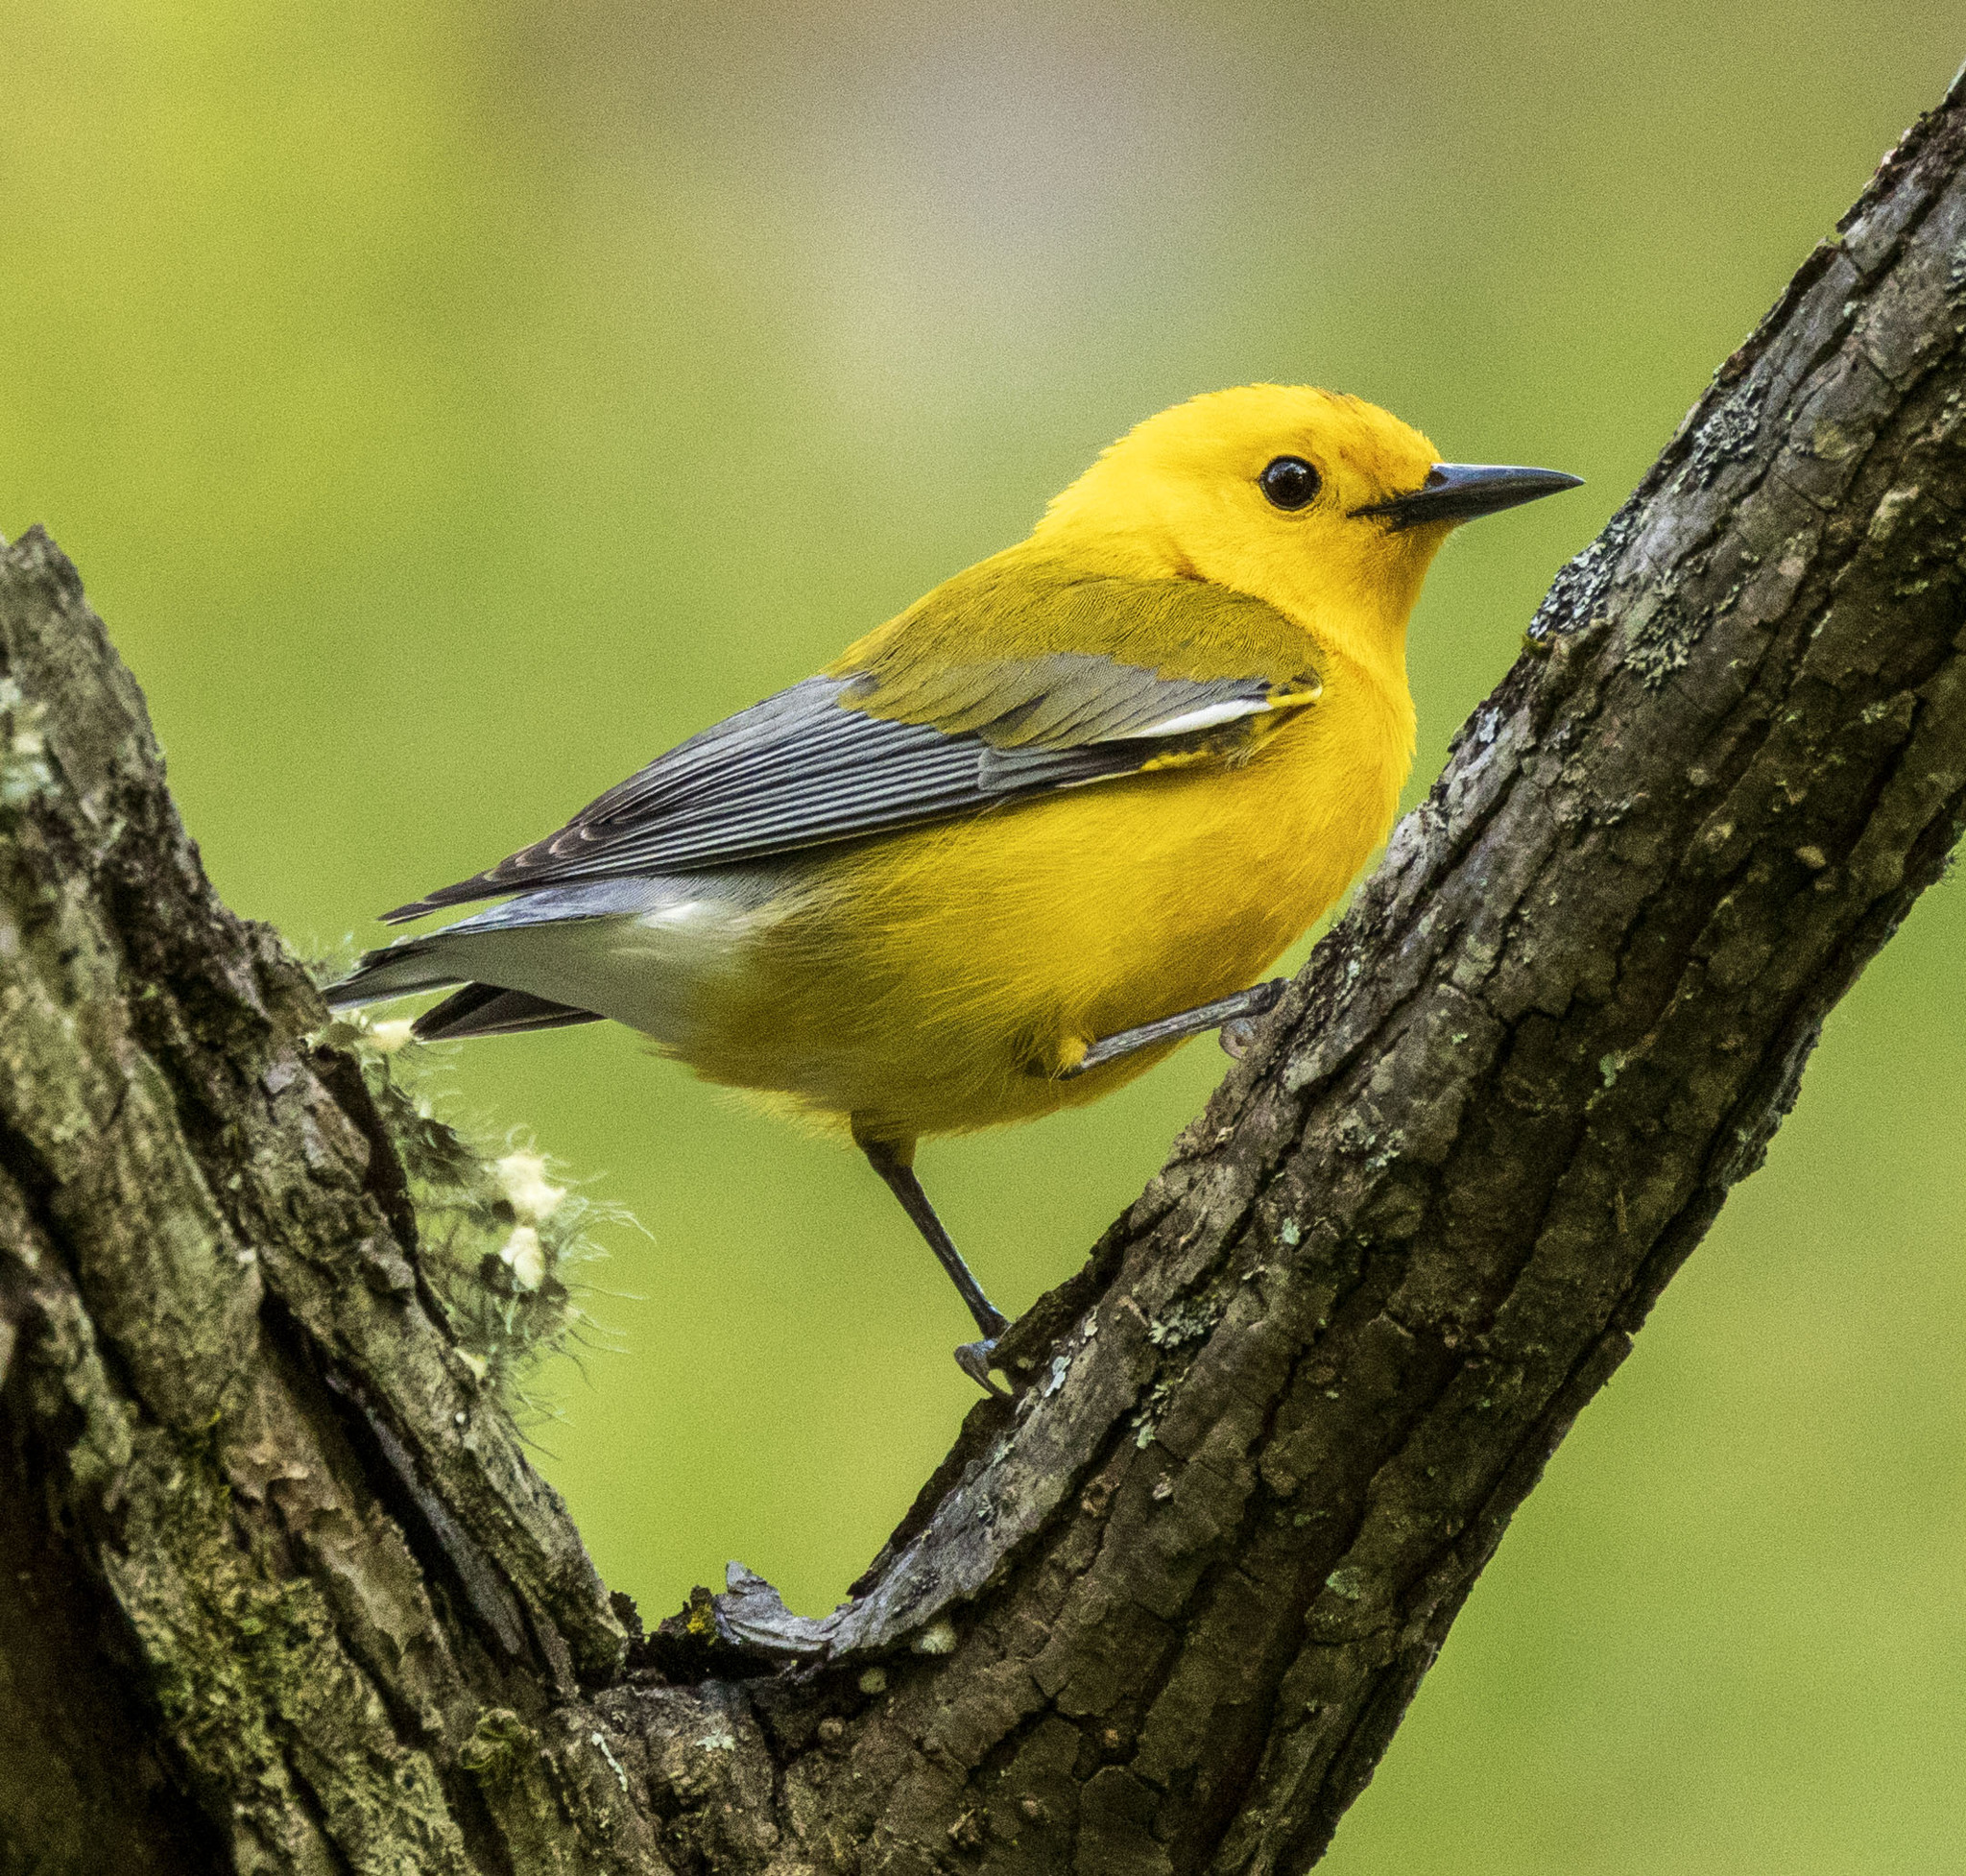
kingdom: Animalia
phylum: Chordata
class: Aves
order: Passeriformes
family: Parulidae
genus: Protonotaria
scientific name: Protonotaria citrea
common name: Prothonotary warbler
